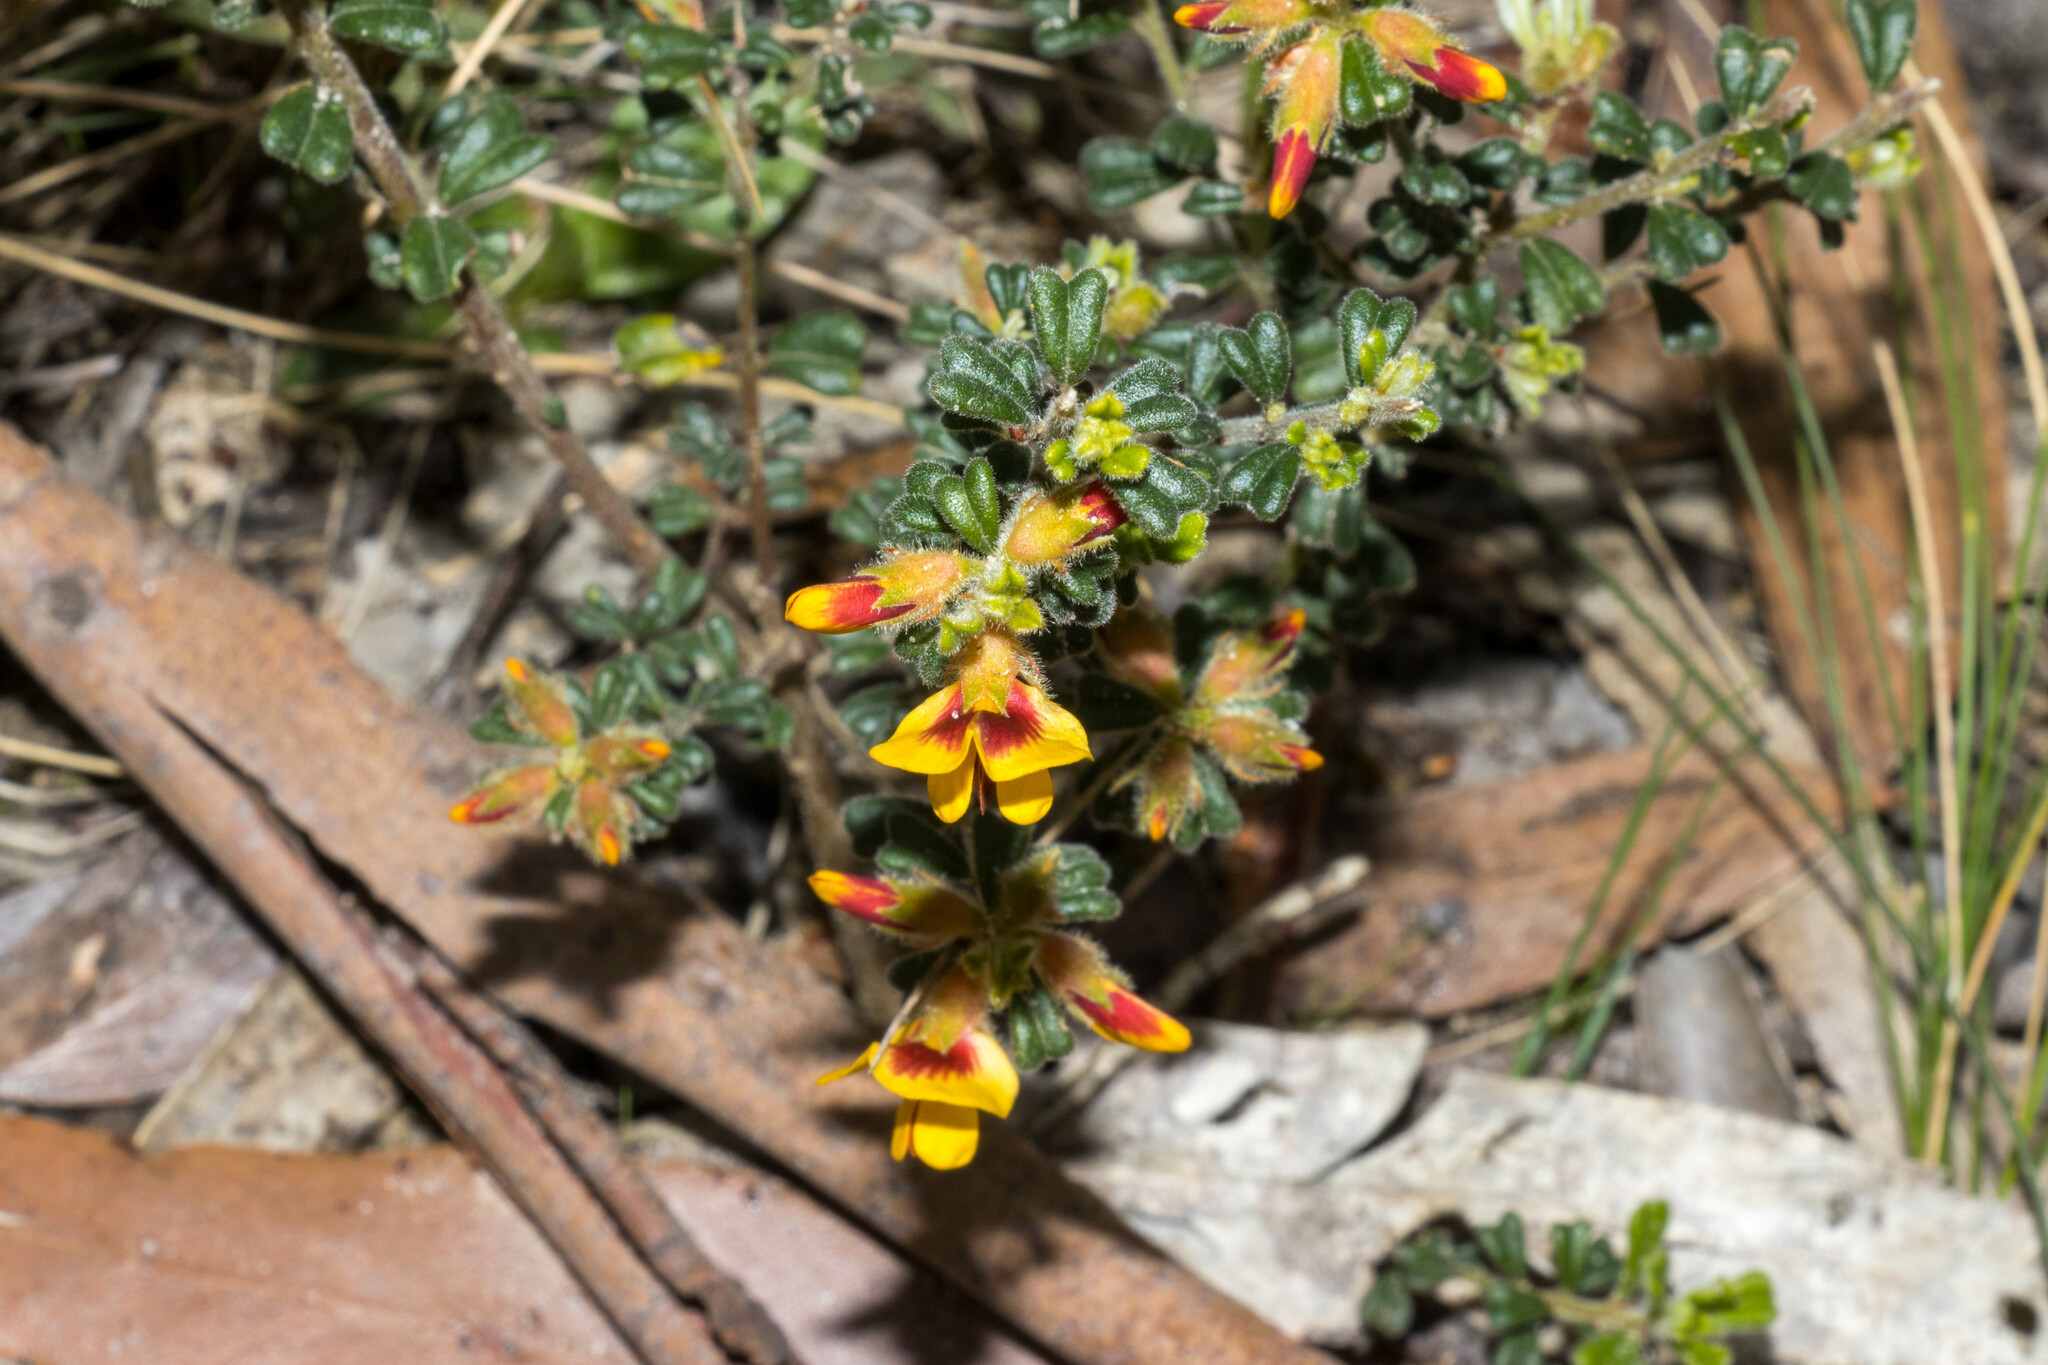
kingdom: Plantae
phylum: Tracheophyta
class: Magnoliopsida
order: Fabales
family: Fabaceae
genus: Pultenaea
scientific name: Pultenaea scabra
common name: Rough bush-pea
